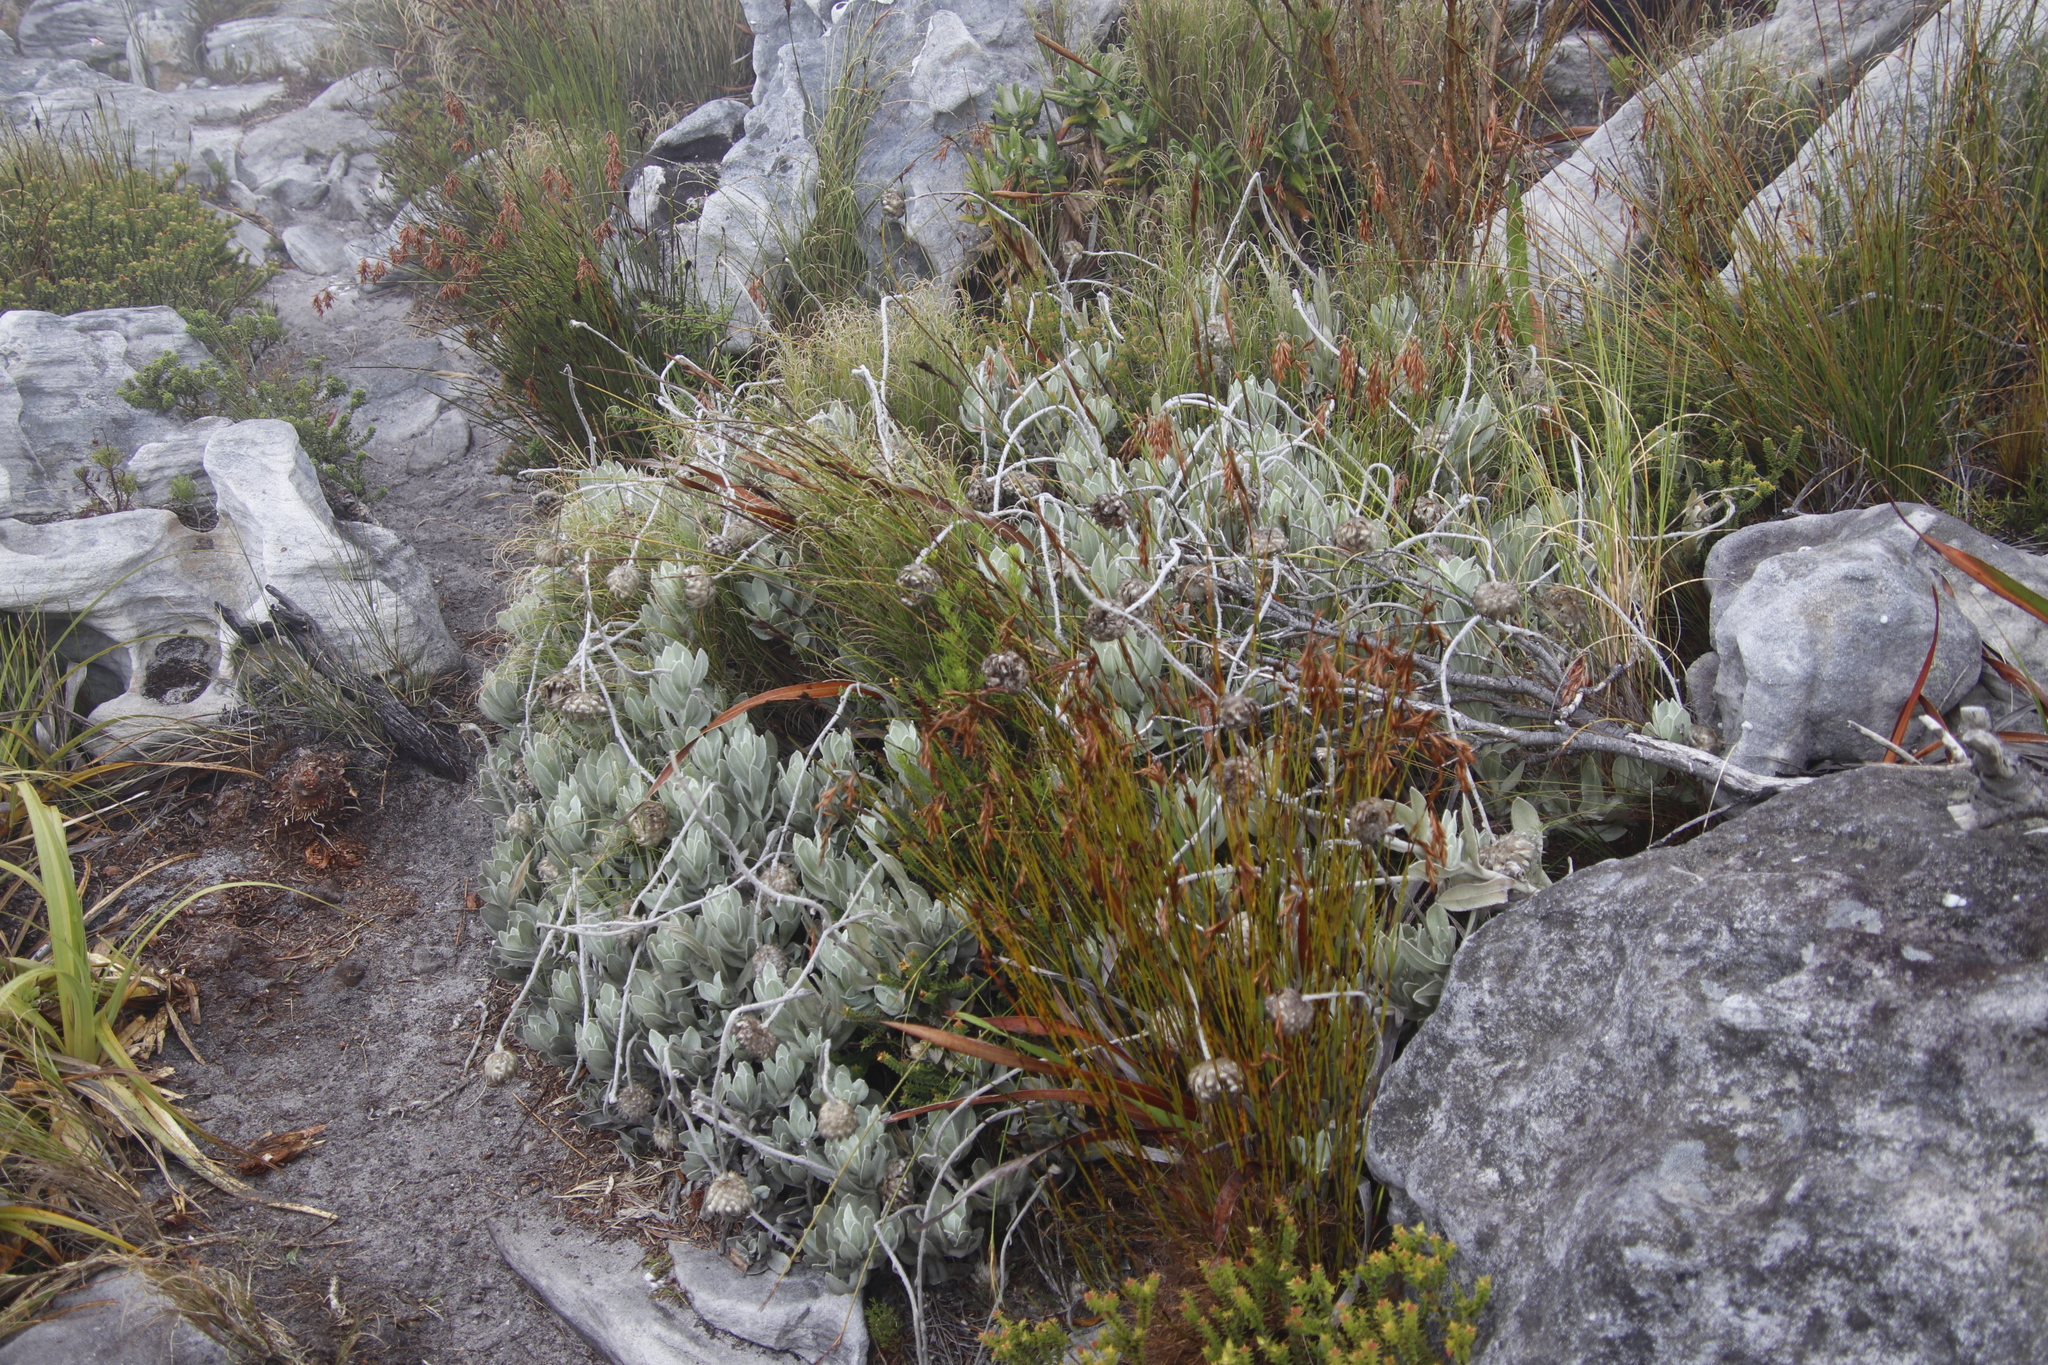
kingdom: Plantae
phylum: Tracheophyta
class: Magnoliopsida
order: Asterales
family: Asteraceae
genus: Syncarpha
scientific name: Syncarpha speciosissima
